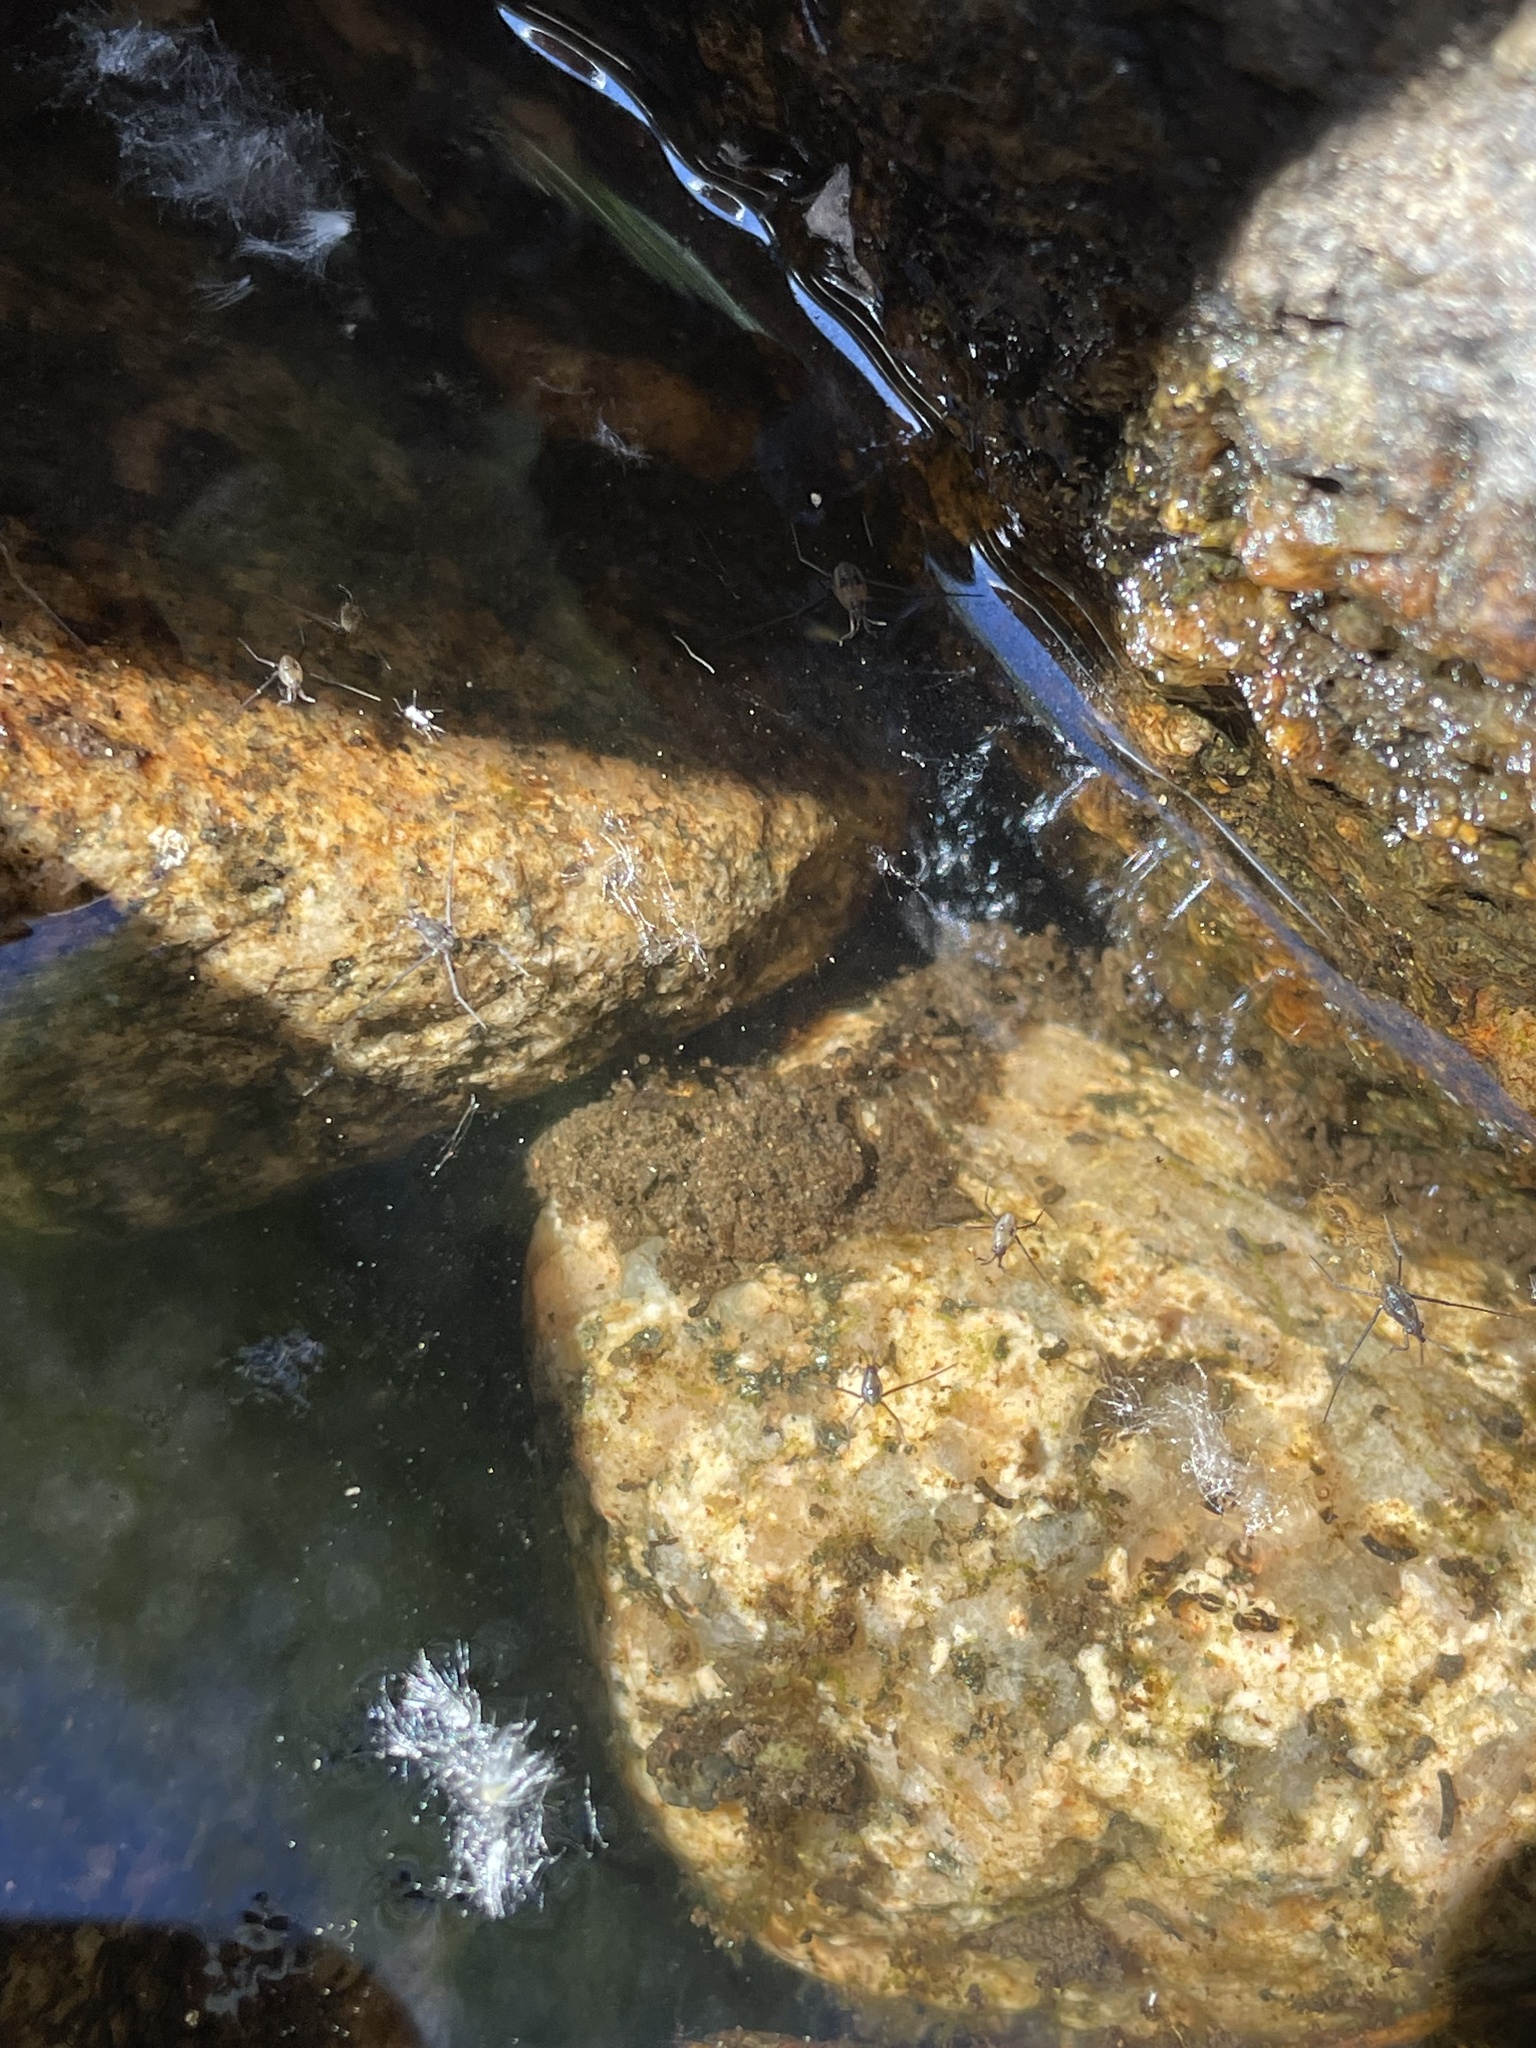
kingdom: Animalia
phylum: Arthropoda
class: Insecta
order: Hemiptera
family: Gerridae
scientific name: Gerridae
